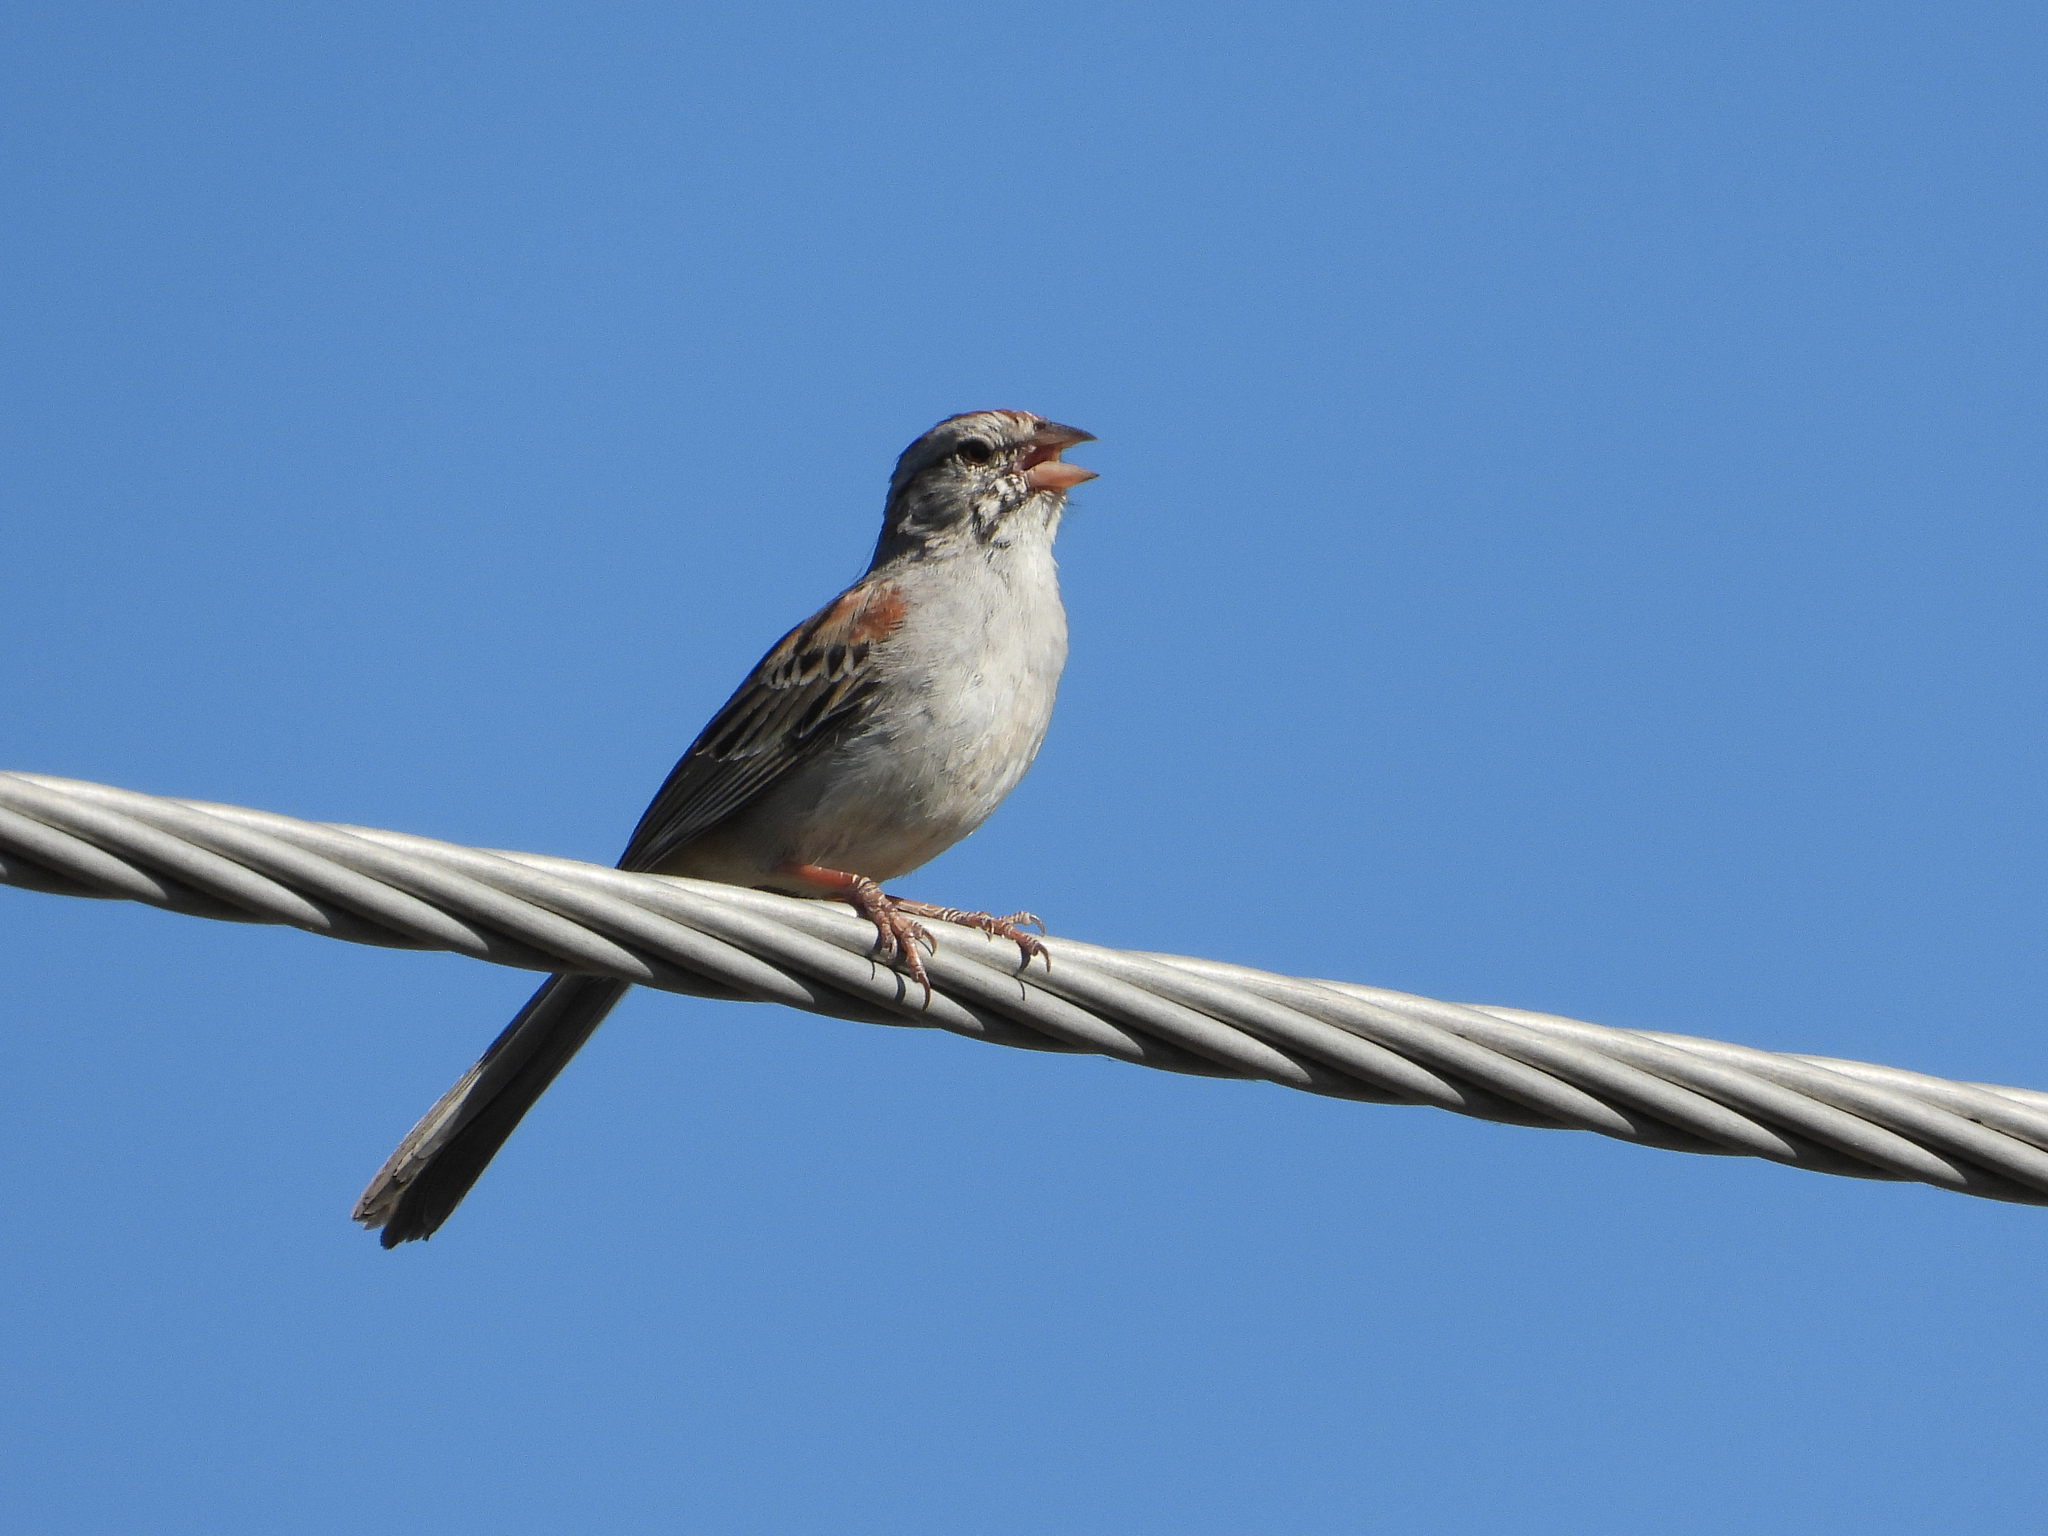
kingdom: Animalia
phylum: Chordata
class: Aves
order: Passeriformes
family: Passerellidae
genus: Peucaea
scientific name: Peucaea carpalis
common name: Rufous-winged sparrow
